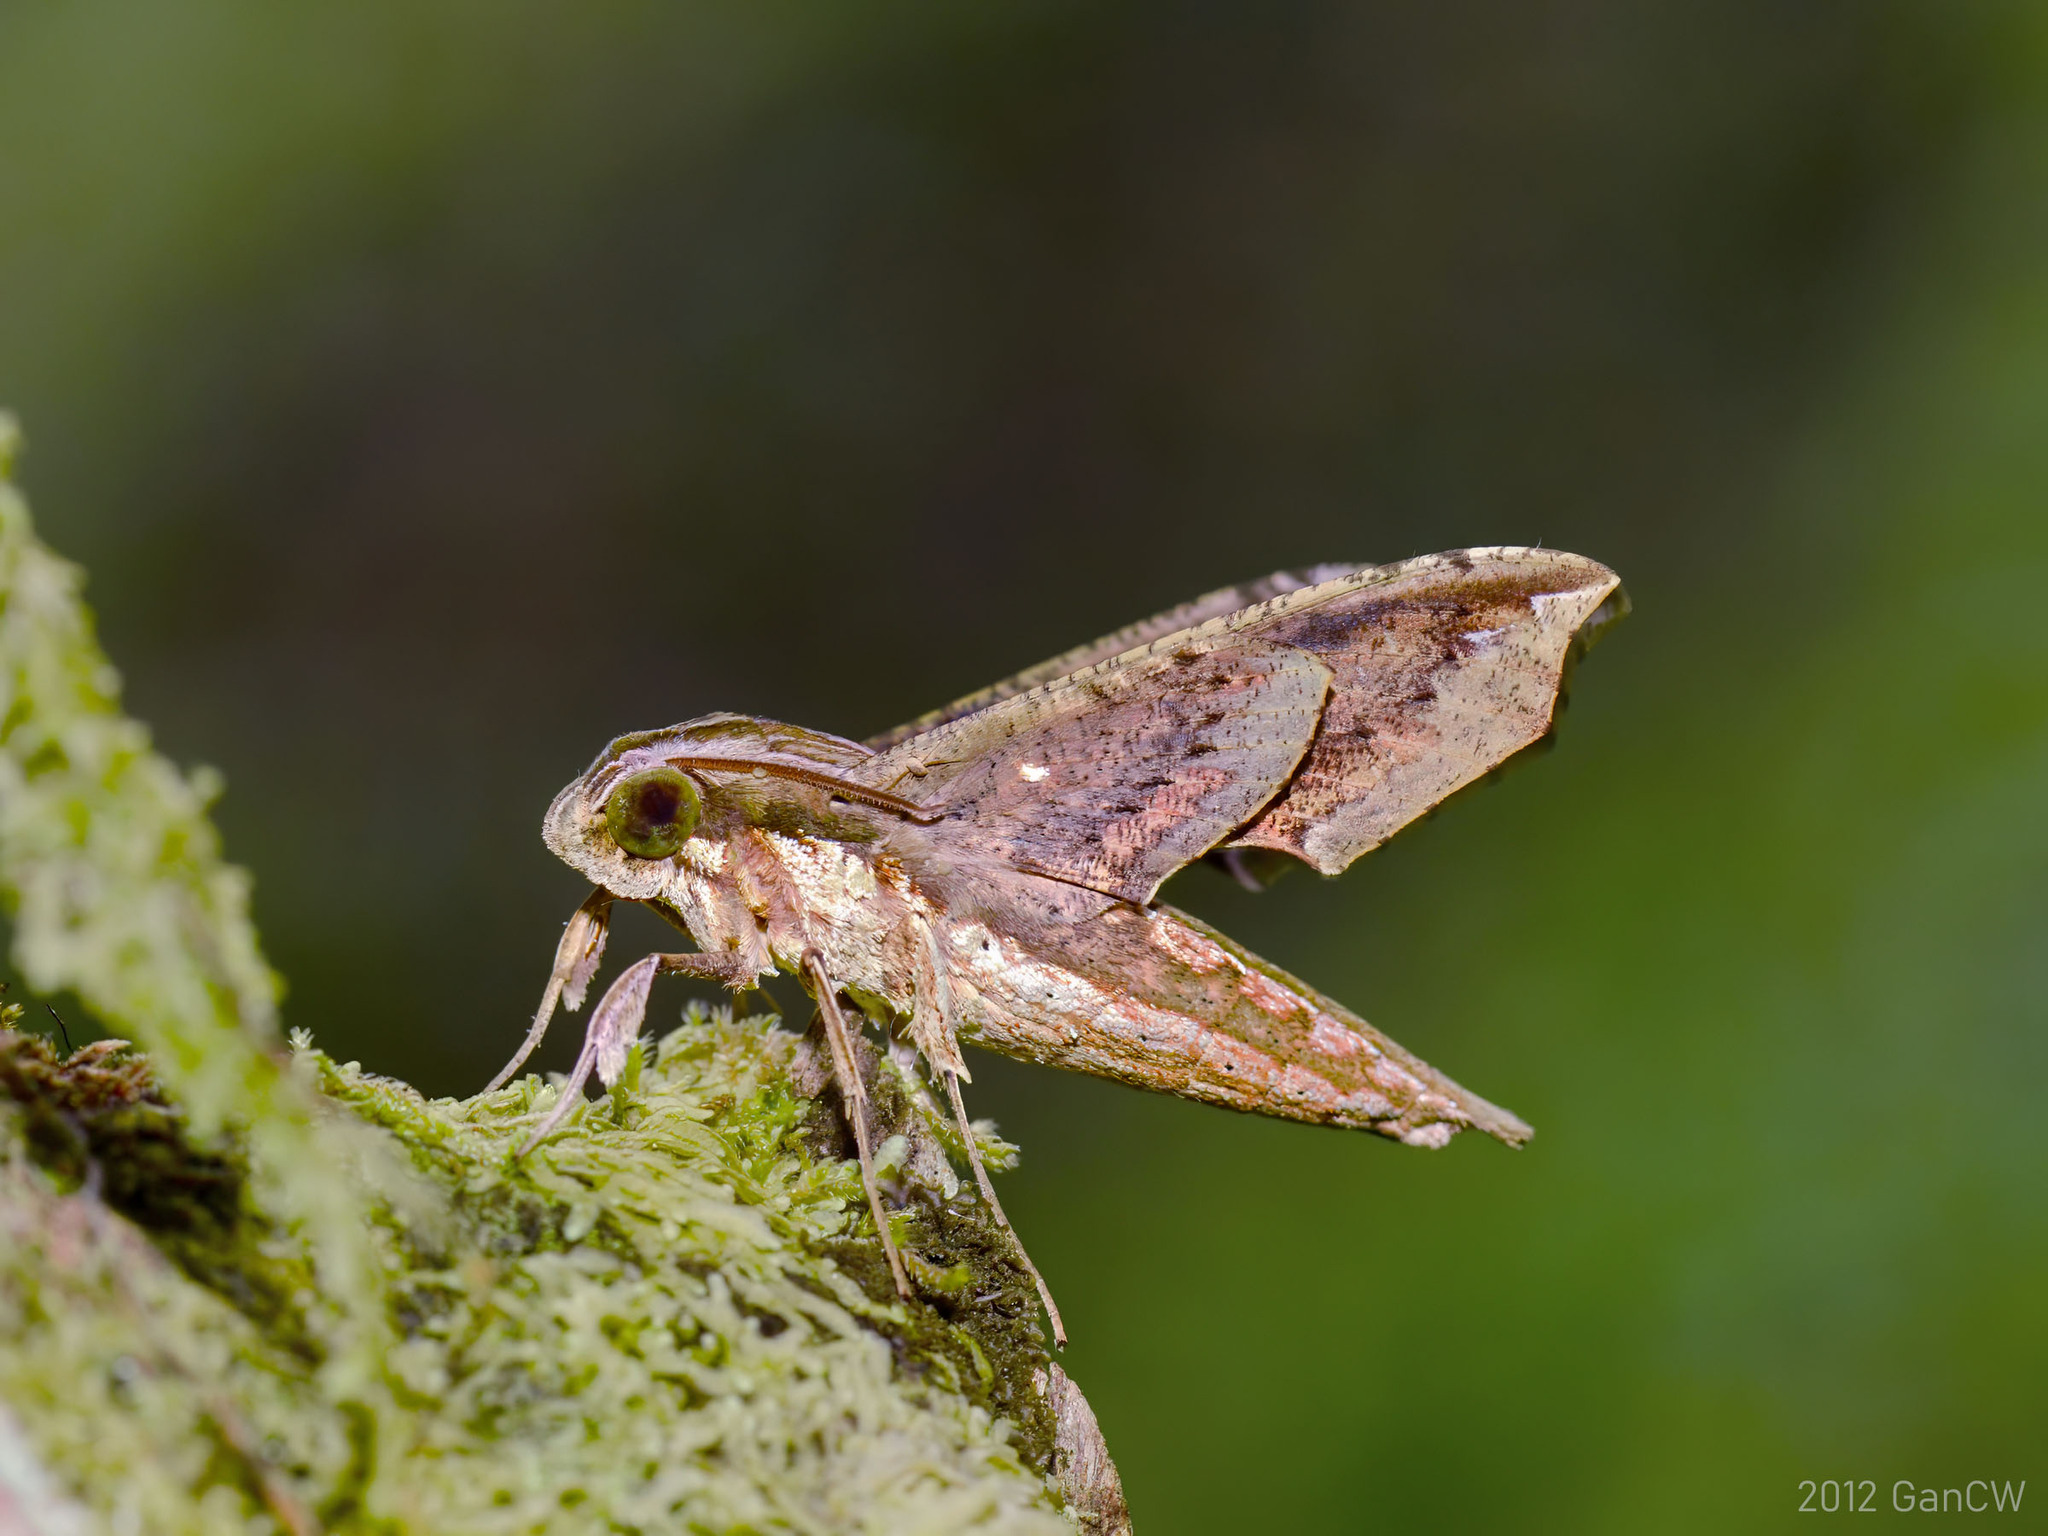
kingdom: Animalia
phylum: Arthropoda
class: Insecta
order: Lepidoptera
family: Sphingidae
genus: Rhagastis
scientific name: Rhagastis castor
